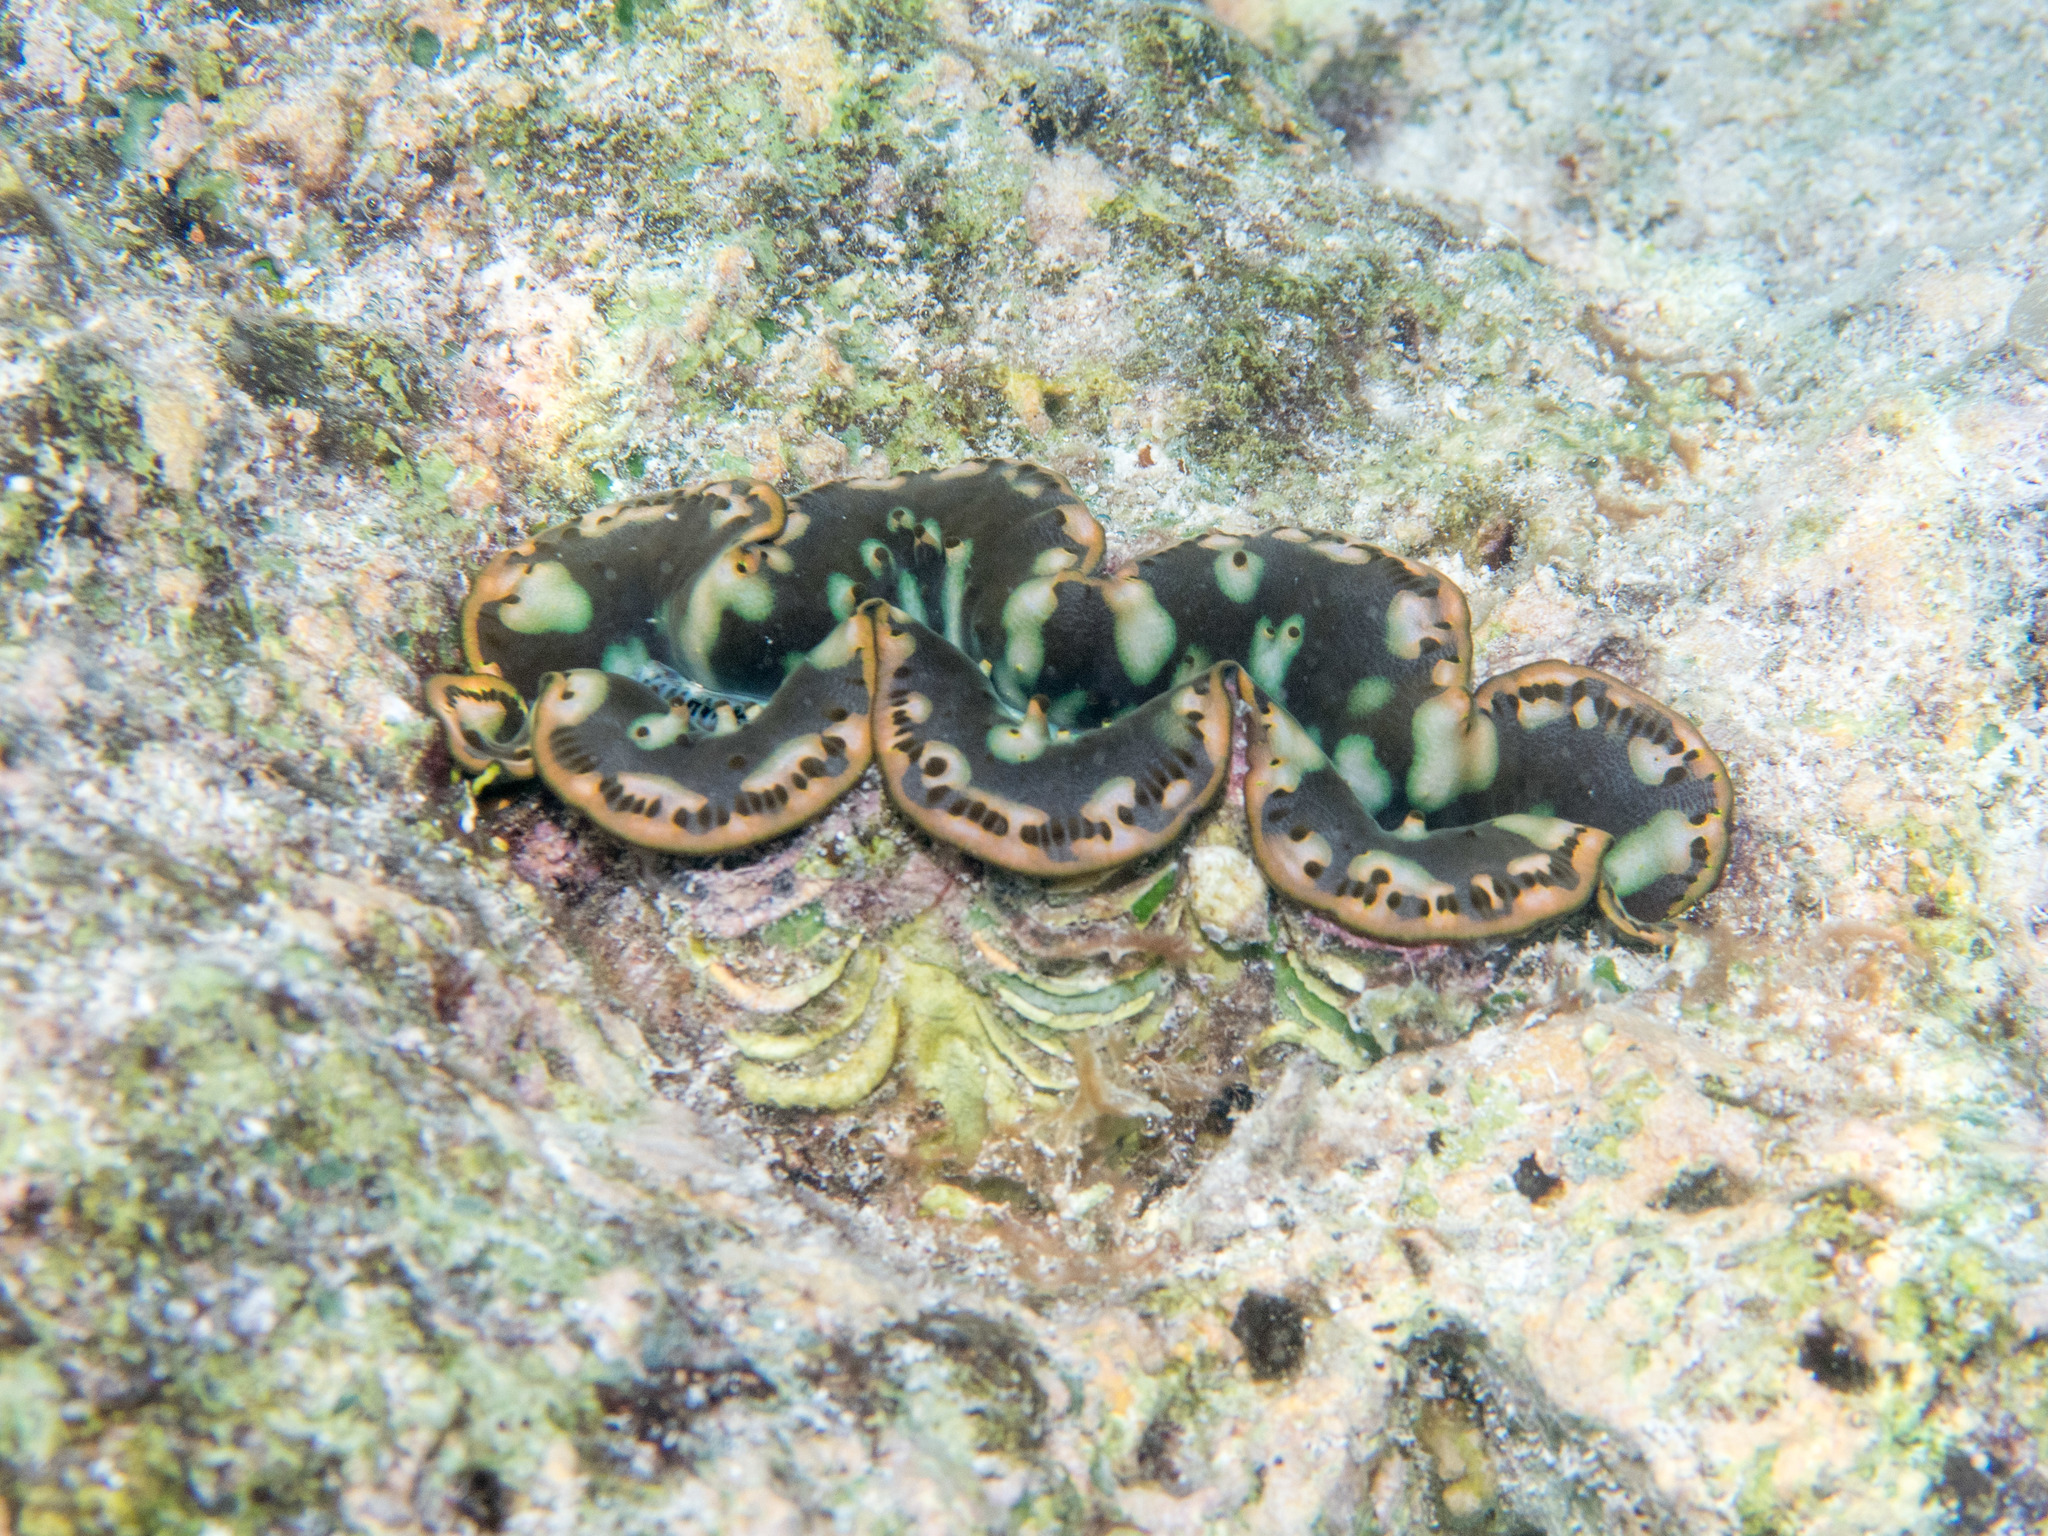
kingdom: Animalia
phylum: Mollusca
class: Bivalvia
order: Cardiida
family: Cardiidae
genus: Tridacna
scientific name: Tridacna maxima
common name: Small giant clam
